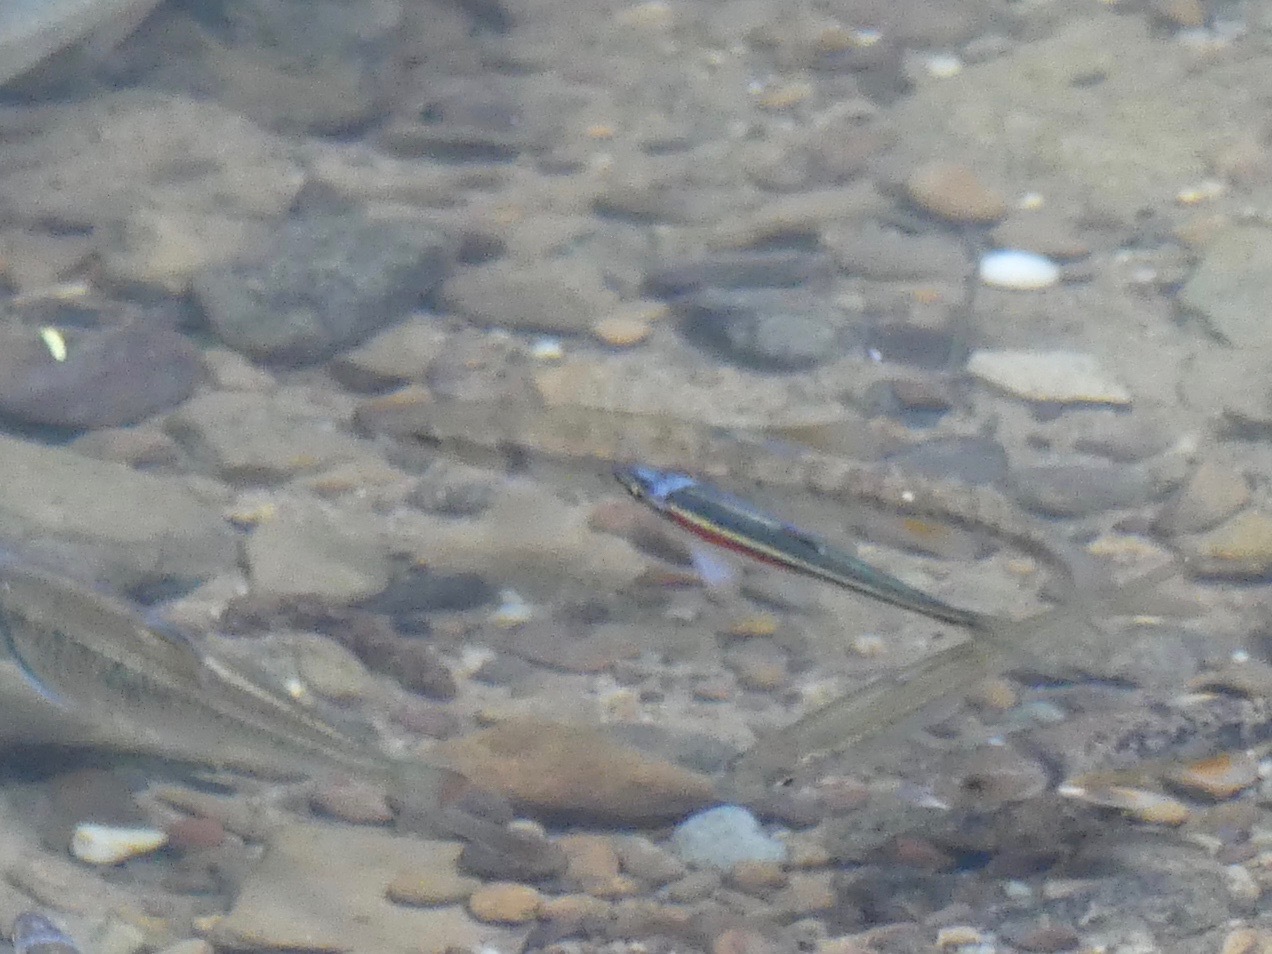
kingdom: Animalia
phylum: Chordata
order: Cypriniformes
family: Cyprinidae
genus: Campostoma
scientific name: Campostoma anomalum
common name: Central stoneroller
